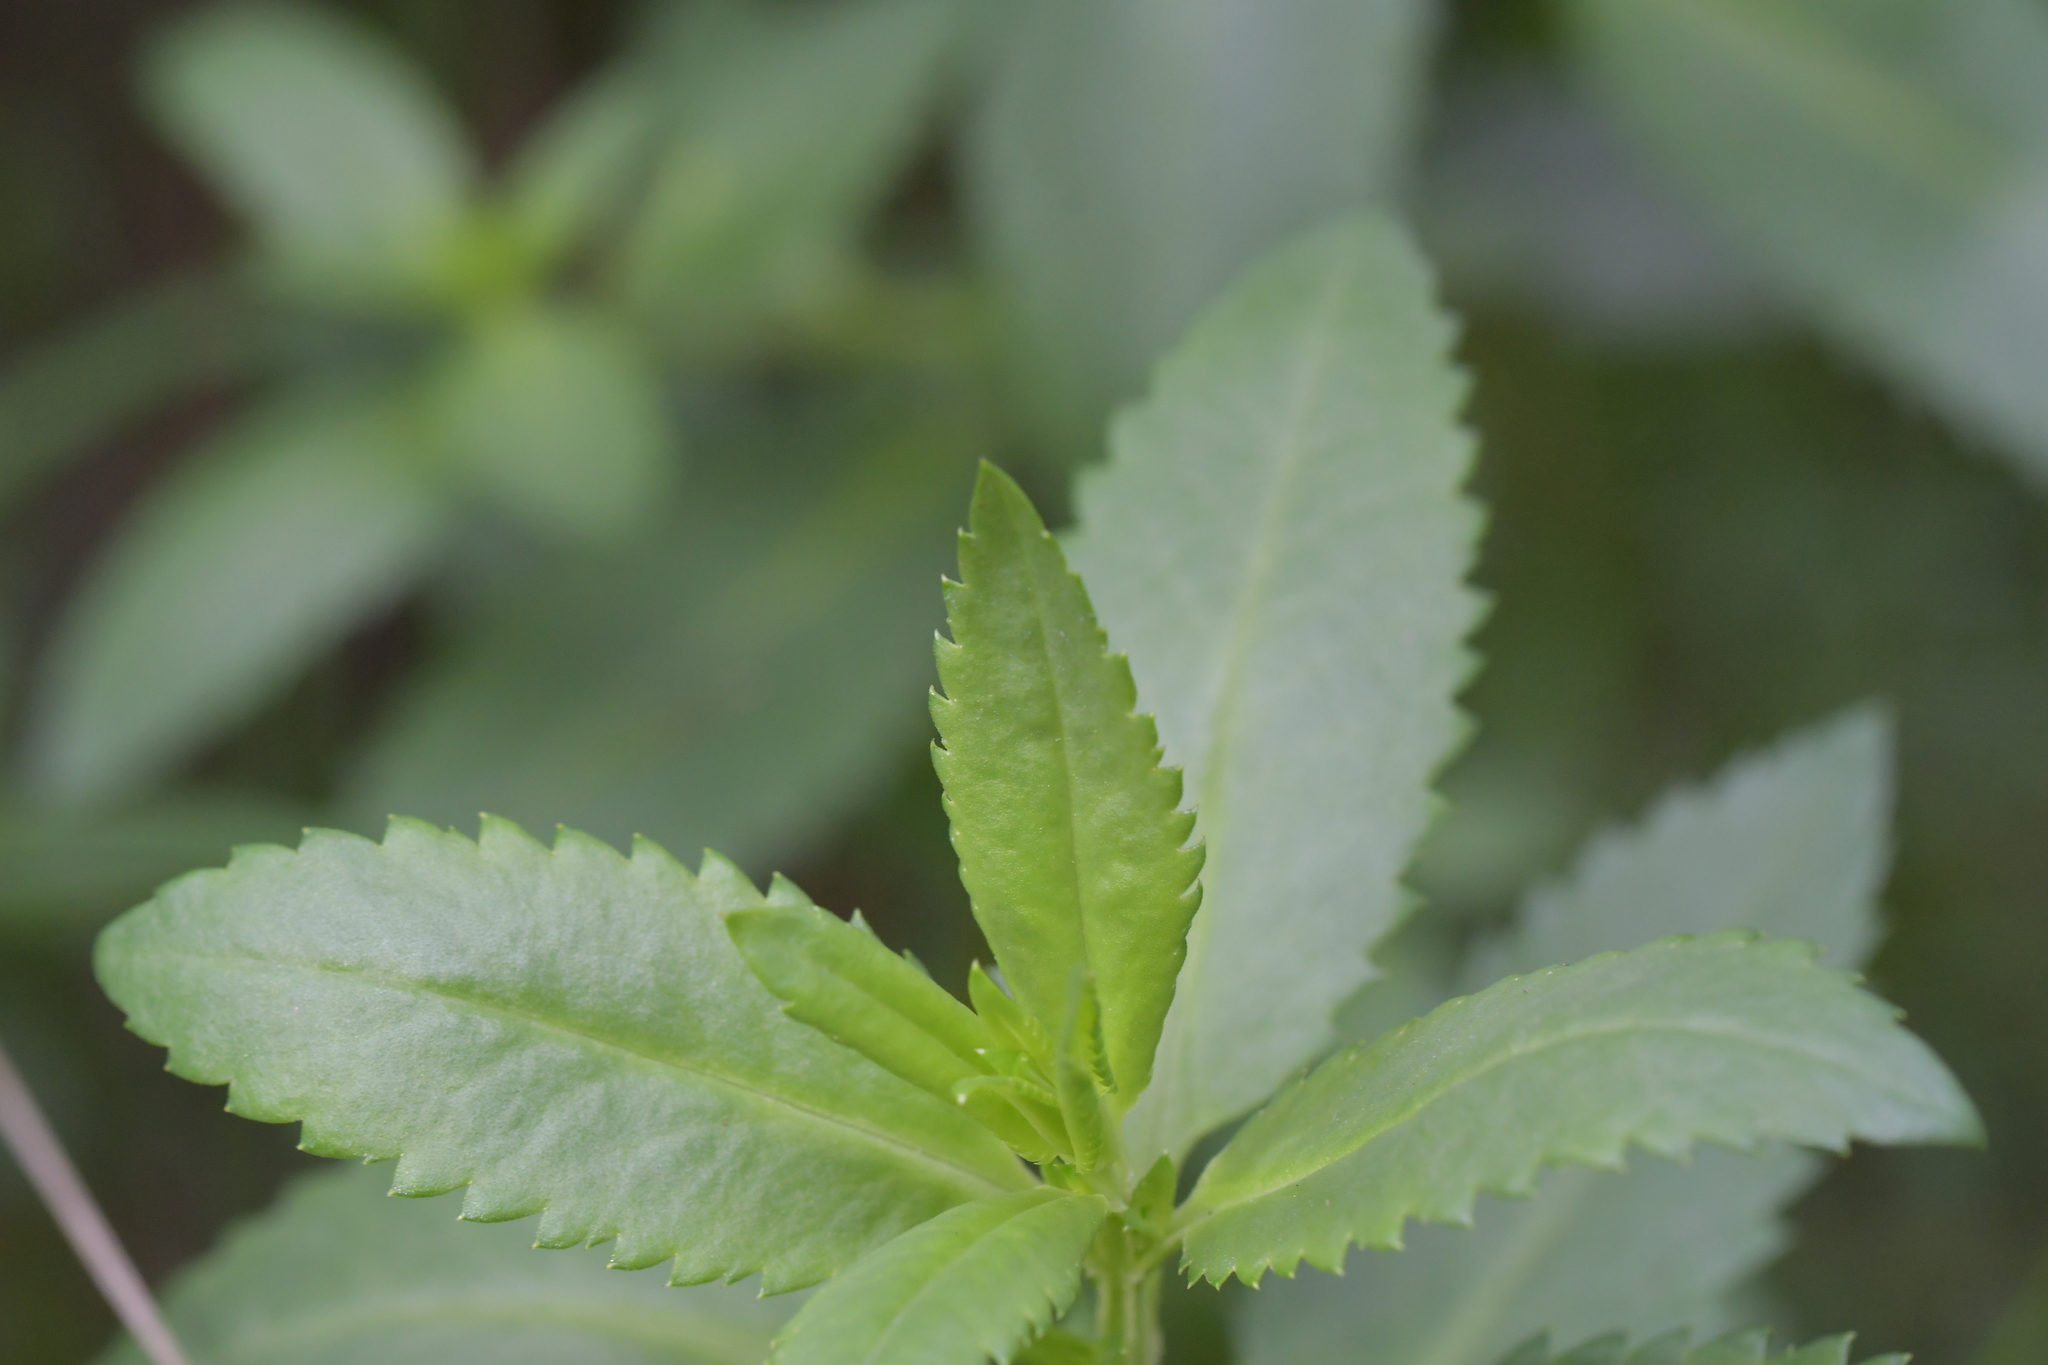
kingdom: Plantae
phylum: Tracheophyta
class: Magnoliopsida
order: Saxifragales
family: Haloragaceae
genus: Haloragis
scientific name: Haloragis erecta
